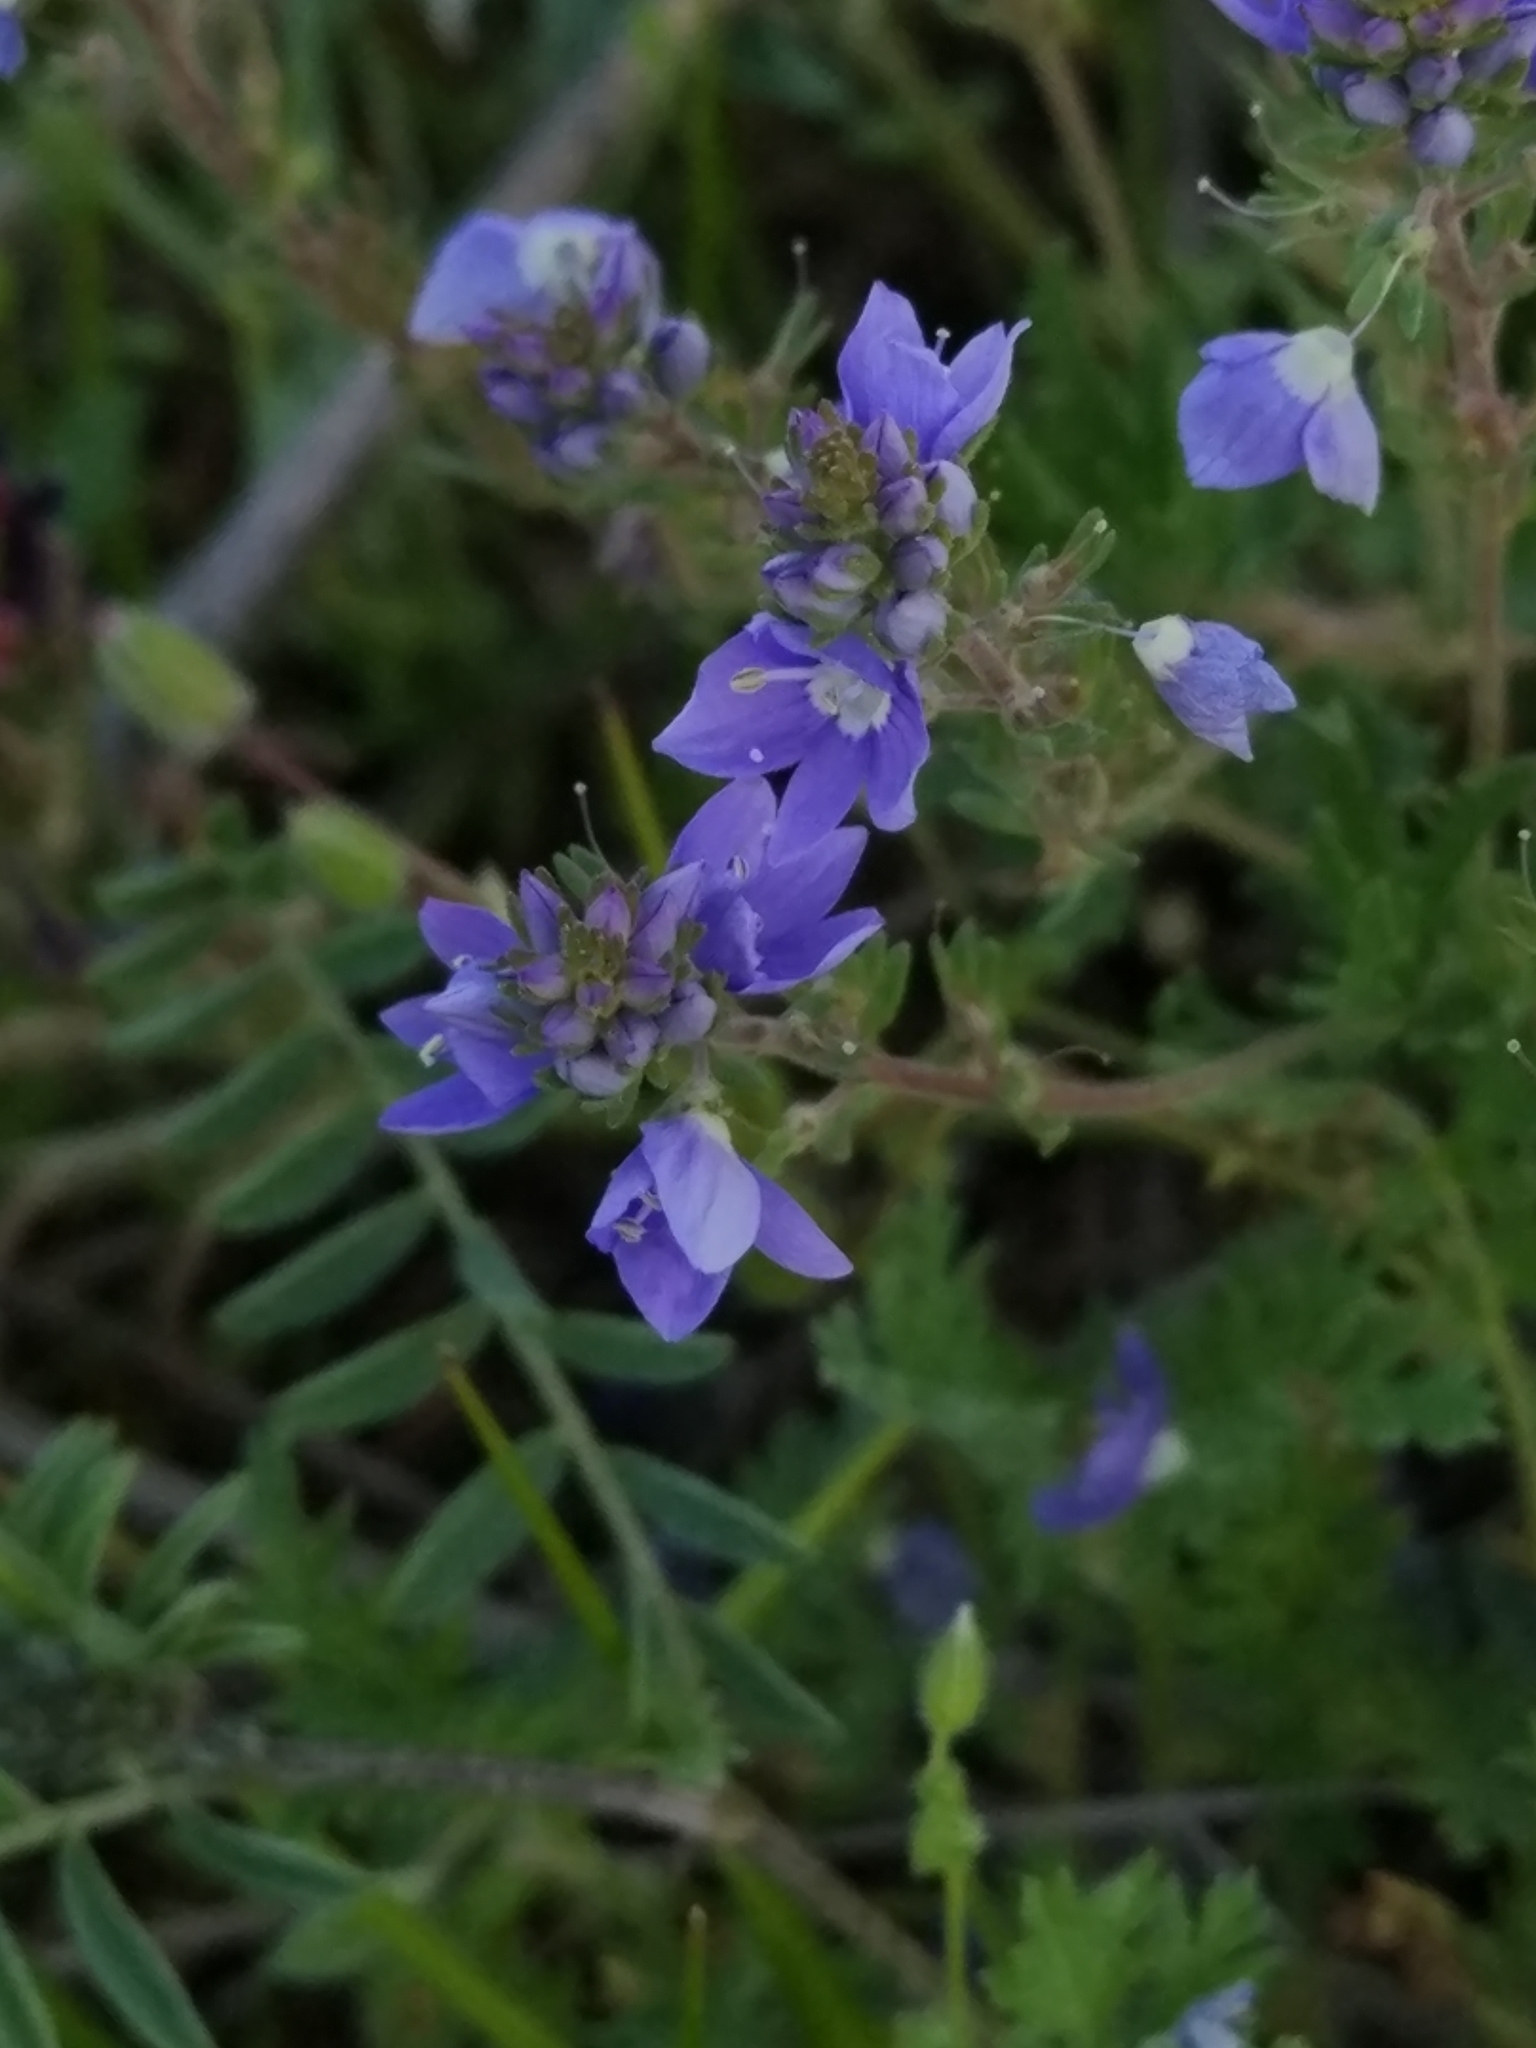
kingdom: Plantae
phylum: Tracheophyta
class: Magnoliopsida
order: Lamiales
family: Plantaginaceae
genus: Veronica
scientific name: Veronica multifida
